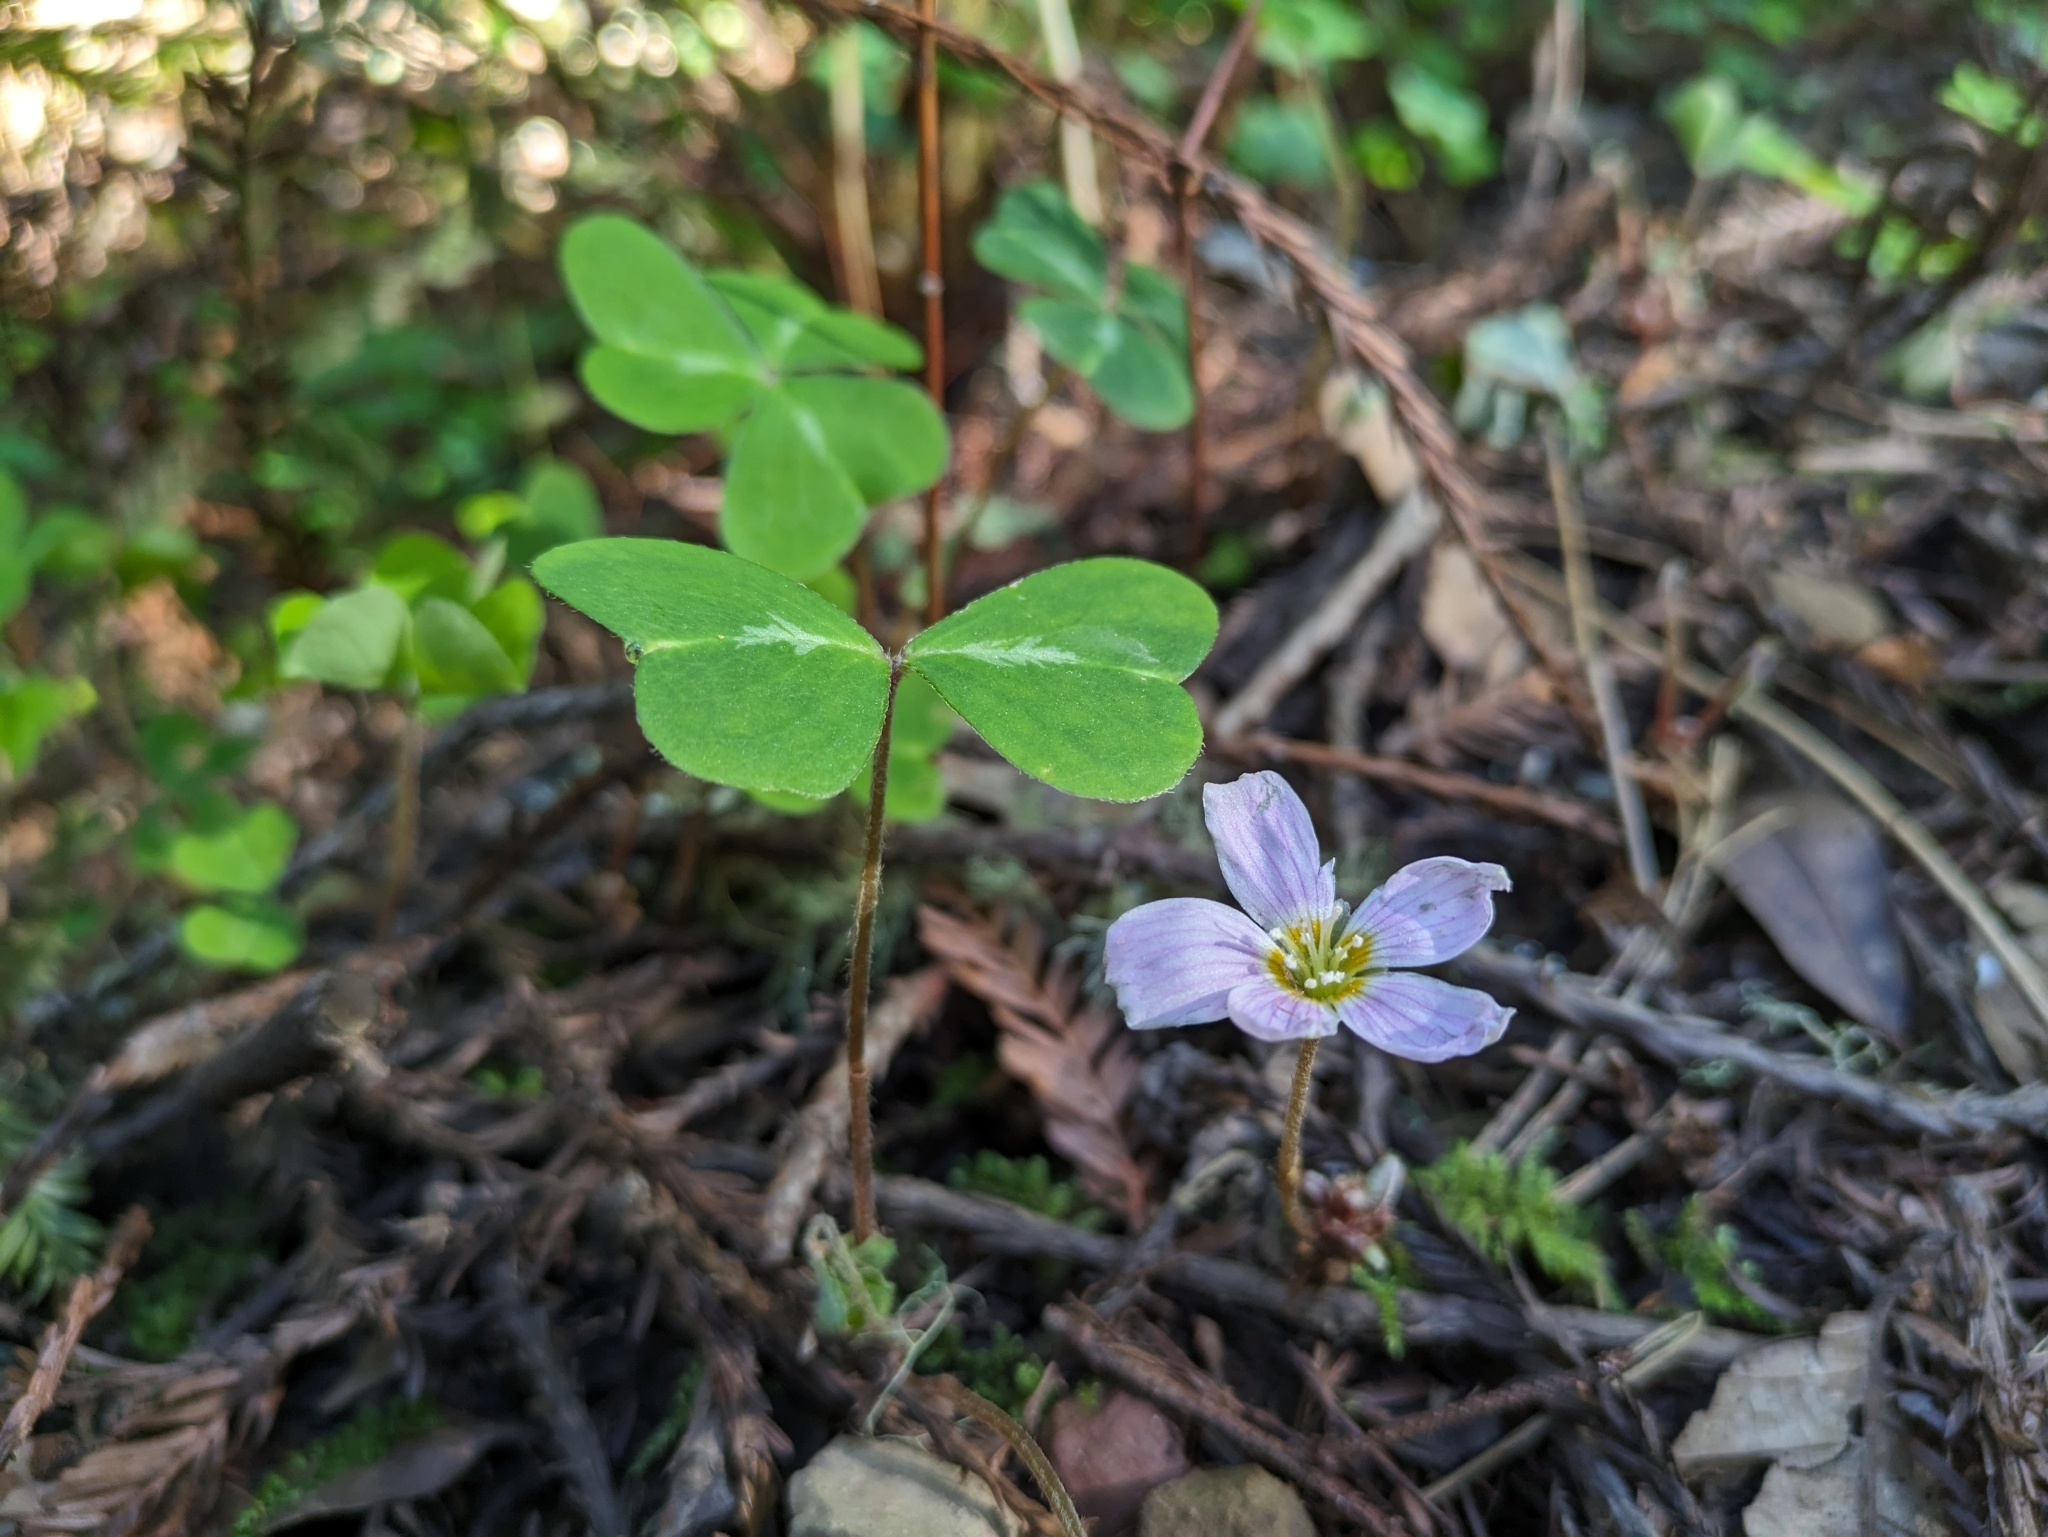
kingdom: Plantae
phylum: Tracheophyta
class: Magnoliopsida
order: Oxalidales
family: Oxalidaceae
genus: Oxalis
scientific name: Oxalis oregana
